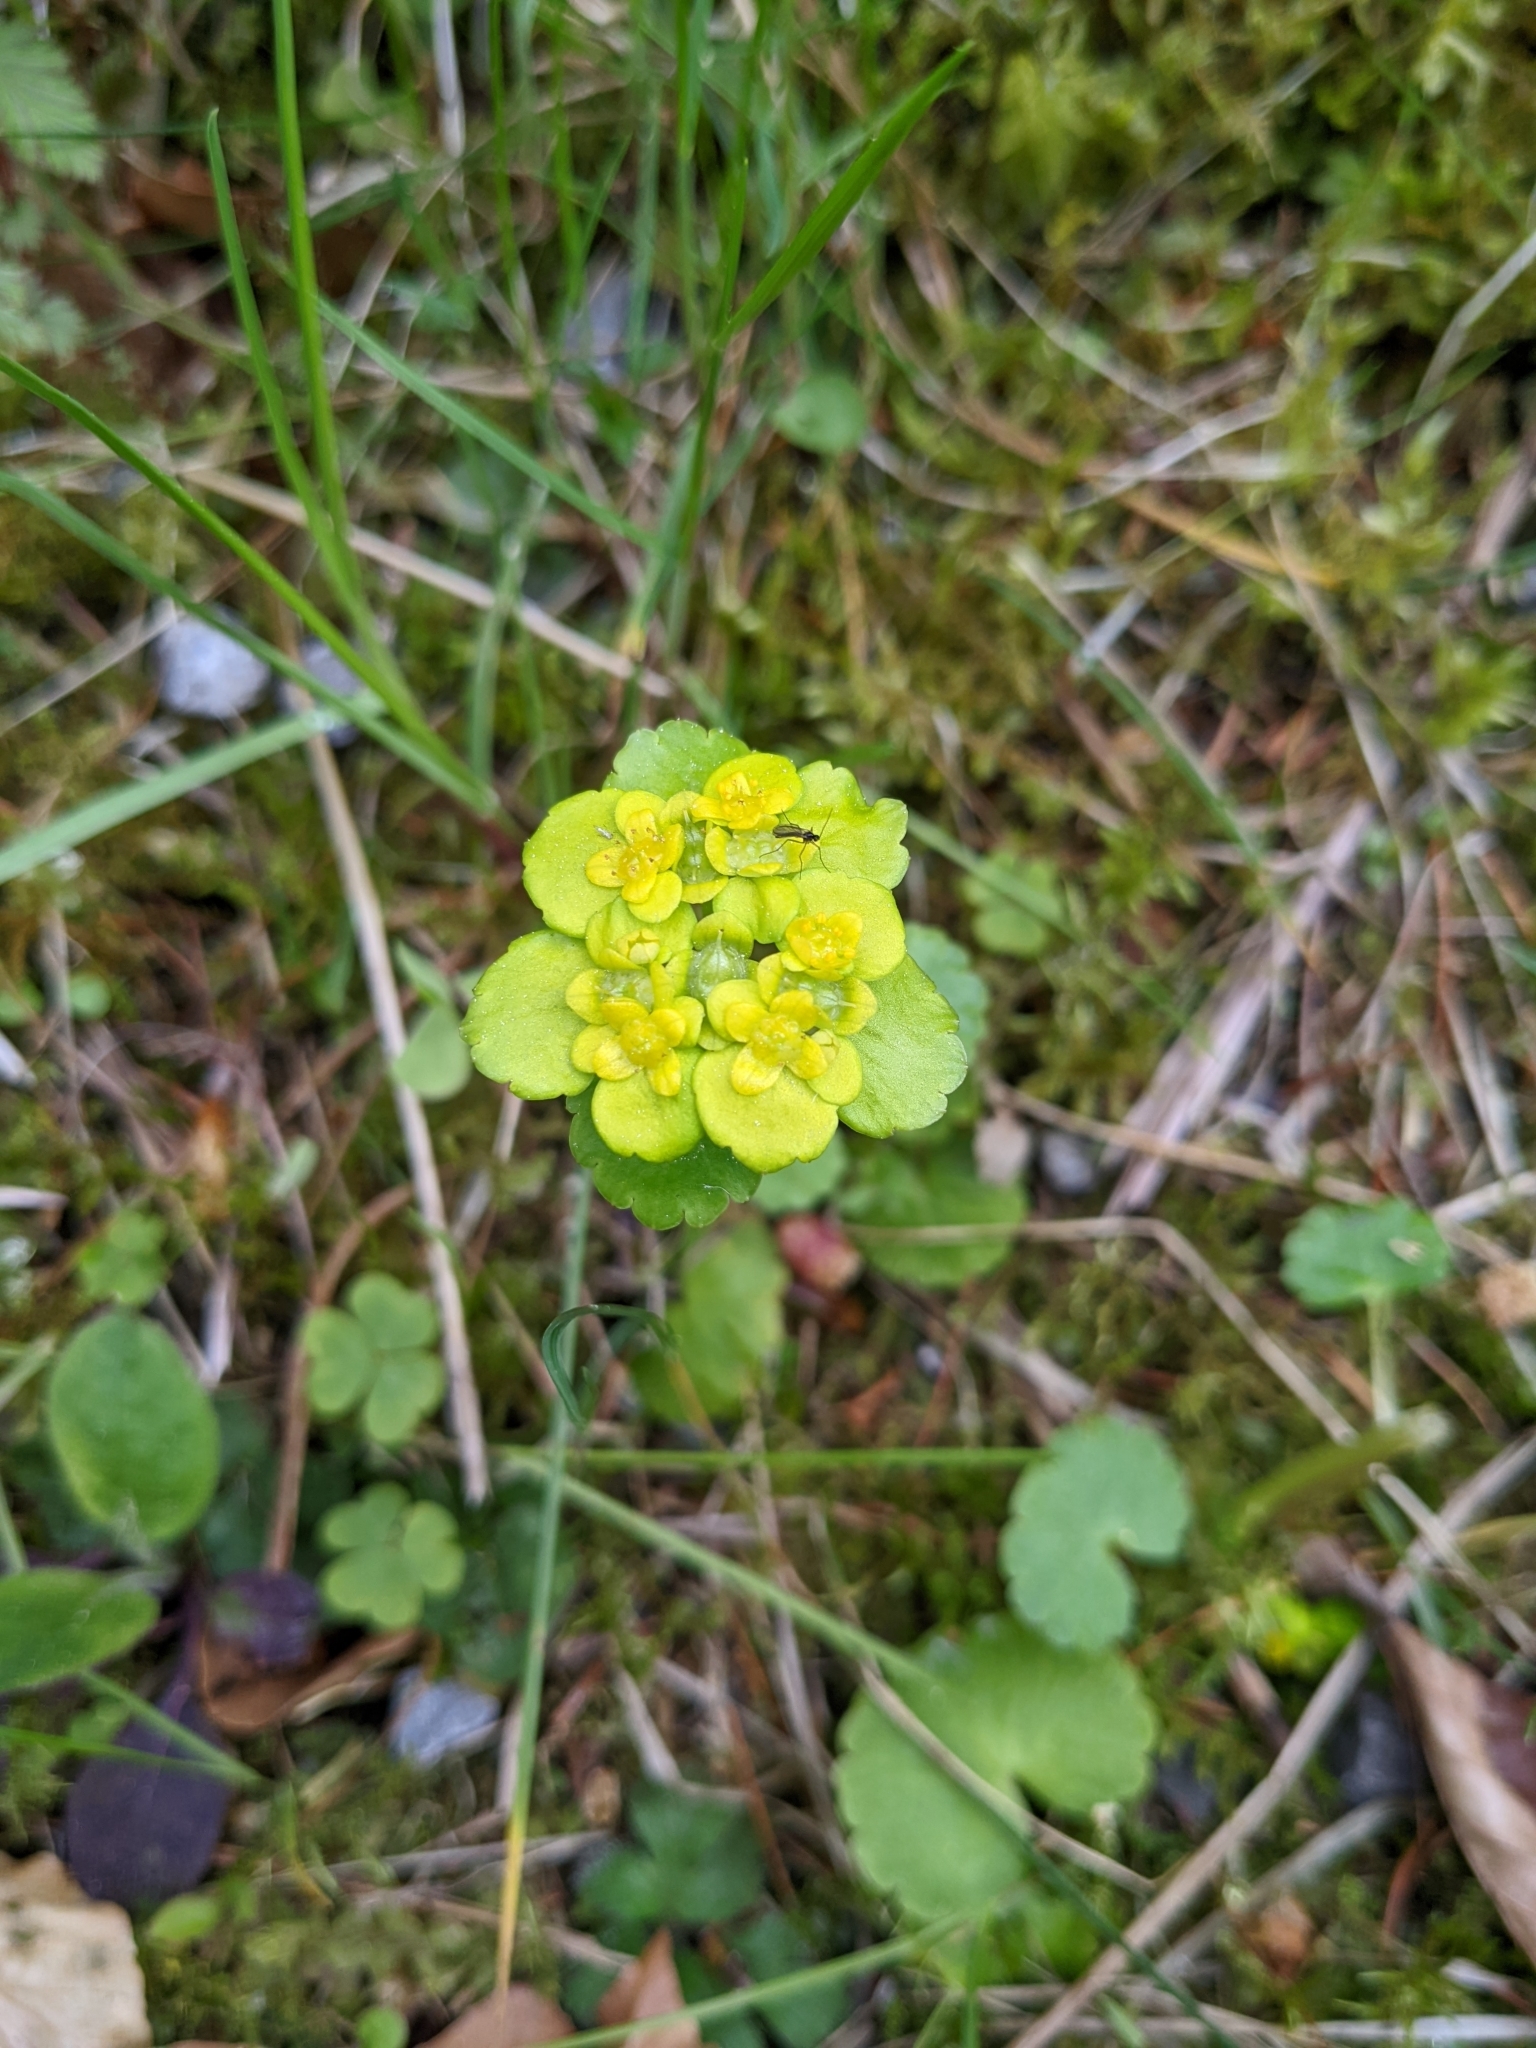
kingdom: Plantae
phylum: Tracheophyta
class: Magnoliopsida
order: Saxifragales
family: Saxifragaceae
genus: Chrysosplenium
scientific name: Chrysosplenium alternifolium
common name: Alternate-leaved golden-saxifrage
